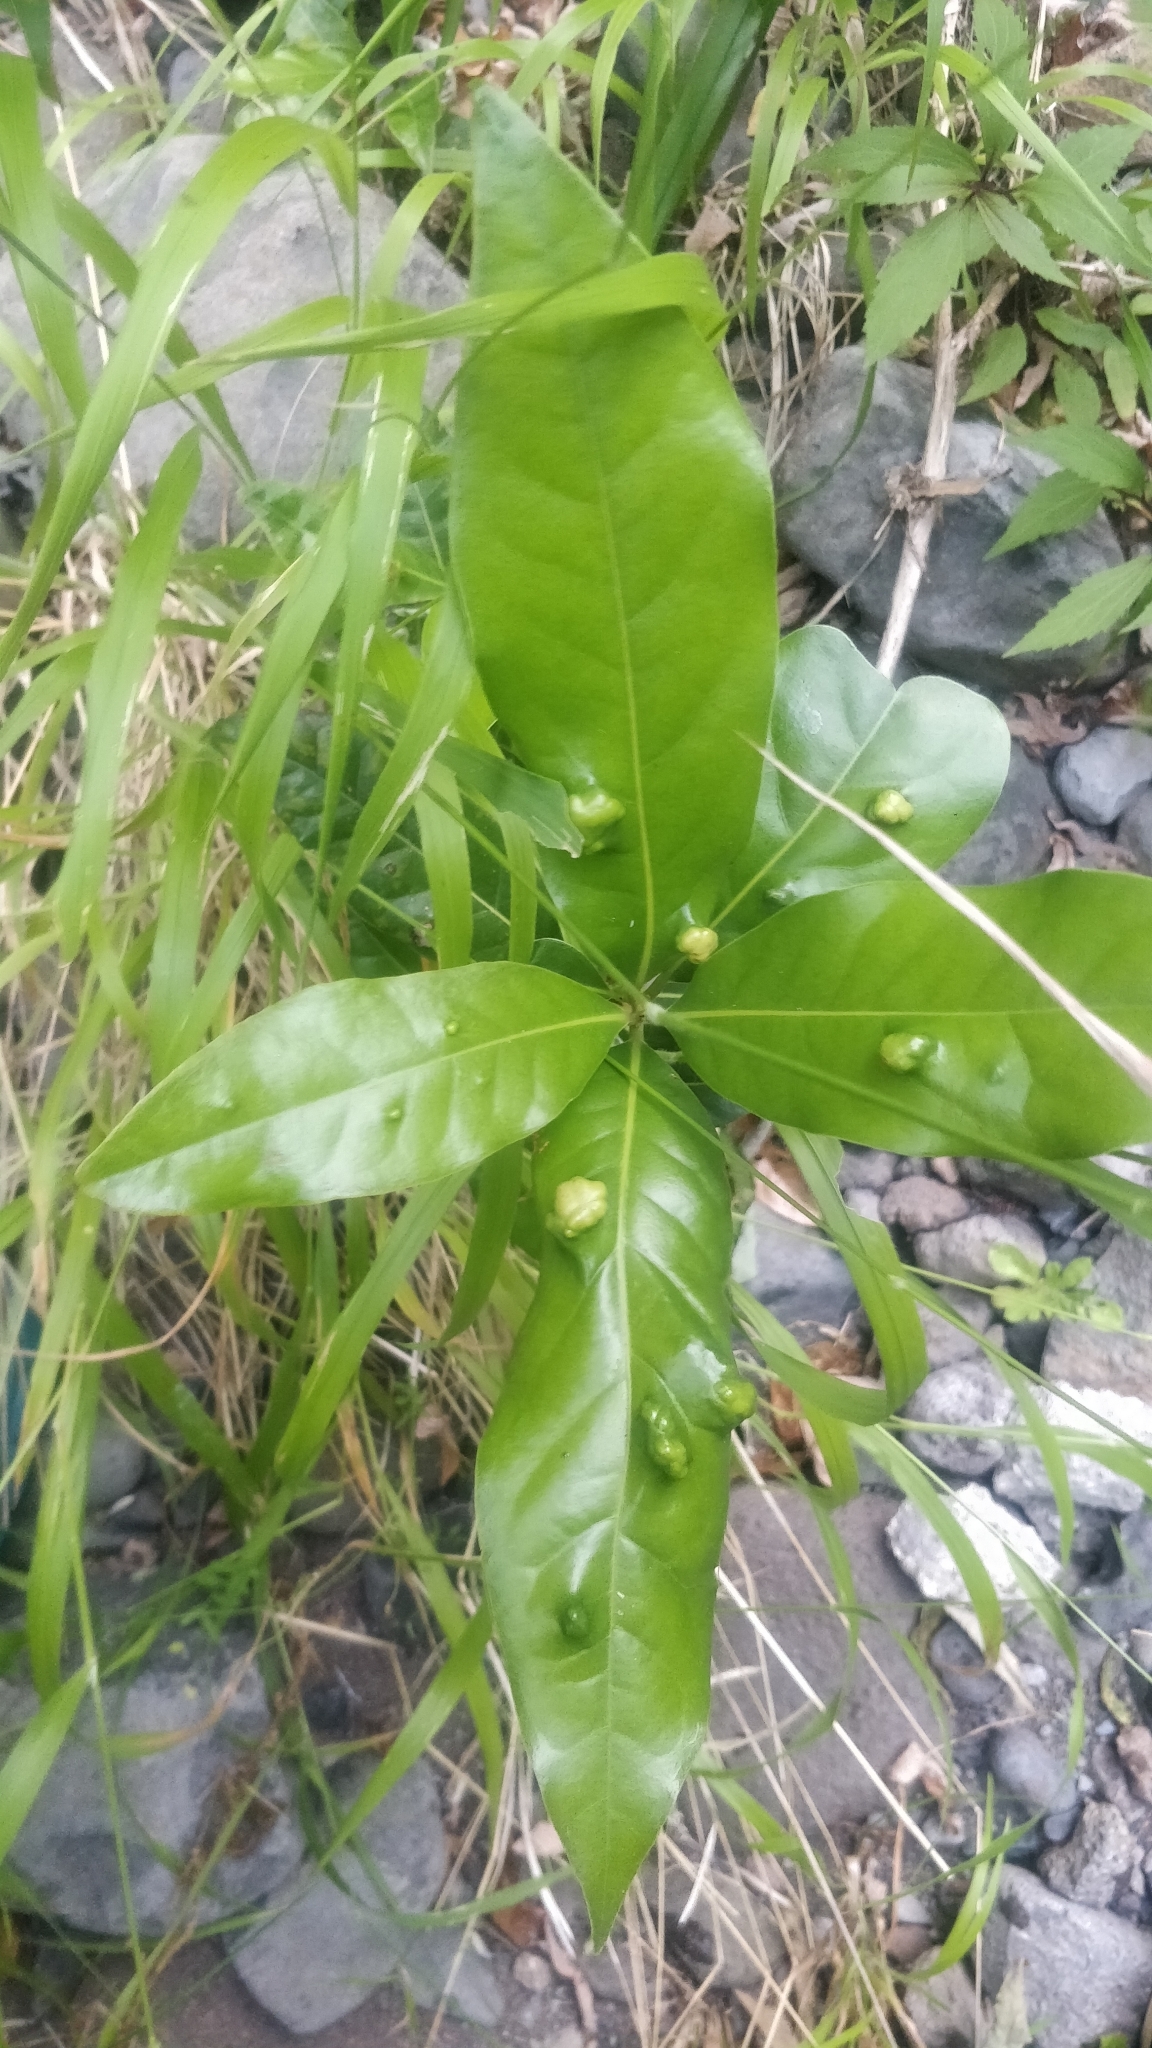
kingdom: Plantae
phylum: Tracheophyta
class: Magnoliopsida
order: Laurales
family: Lauraceae
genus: Apollonias
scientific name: Apollonias barbujana
